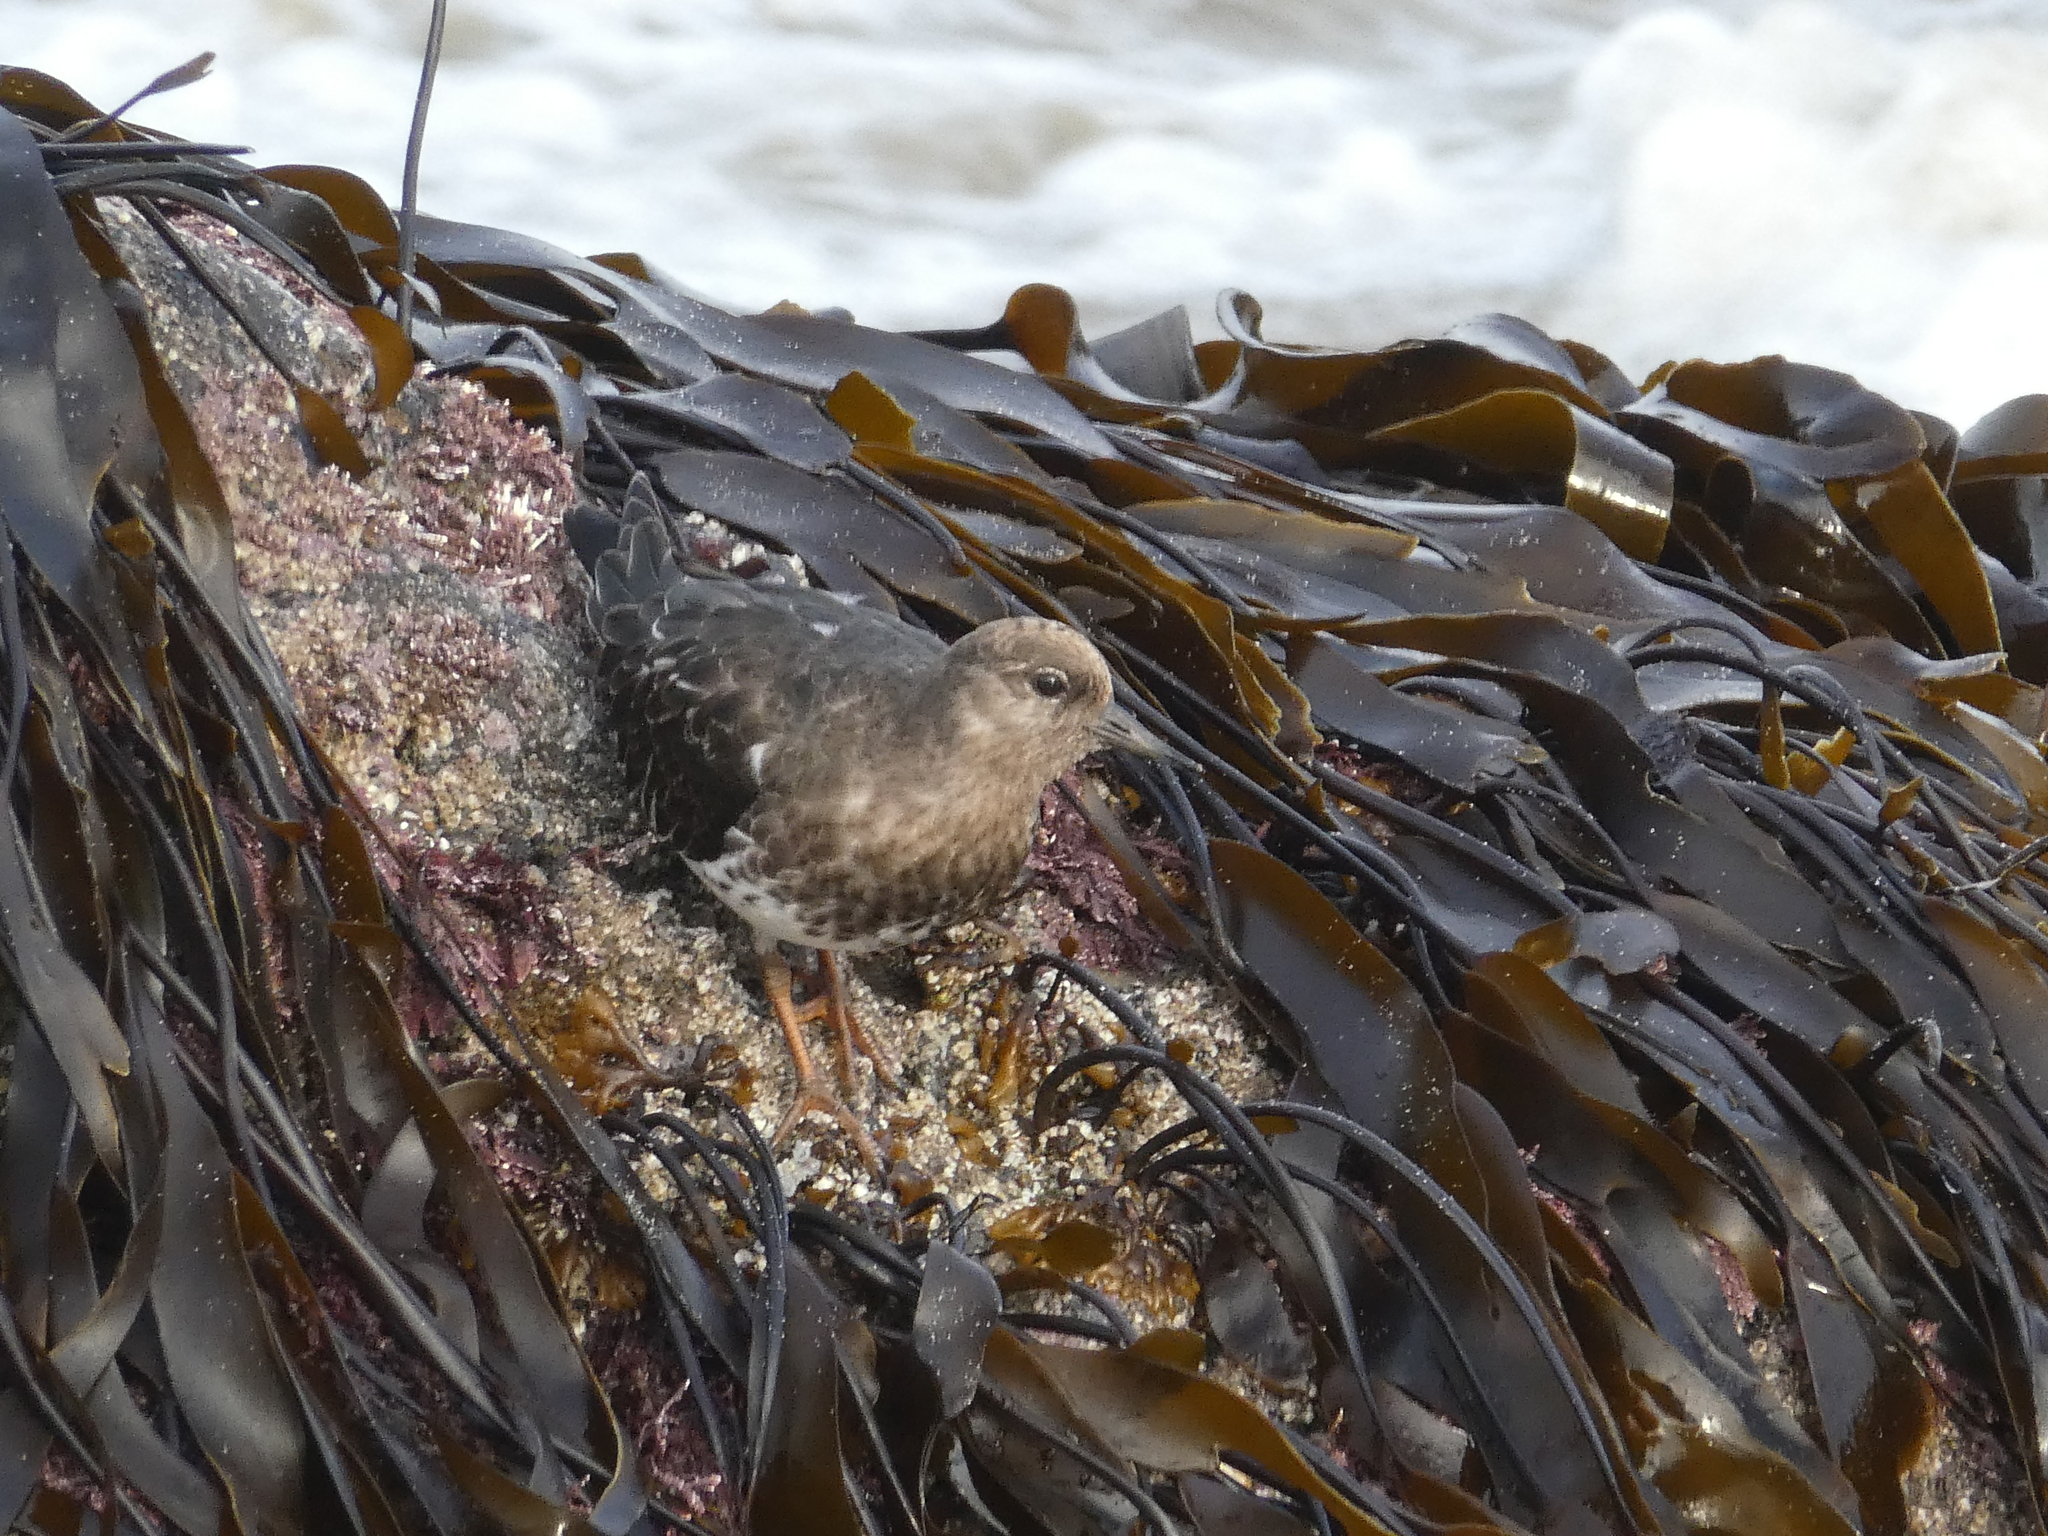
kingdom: Animalia
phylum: Chordata
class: Aves
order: Charadriiformes
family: Scolopacidae
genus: Arenaria
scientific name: Arenaria melanocephala
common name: Black turnstone
